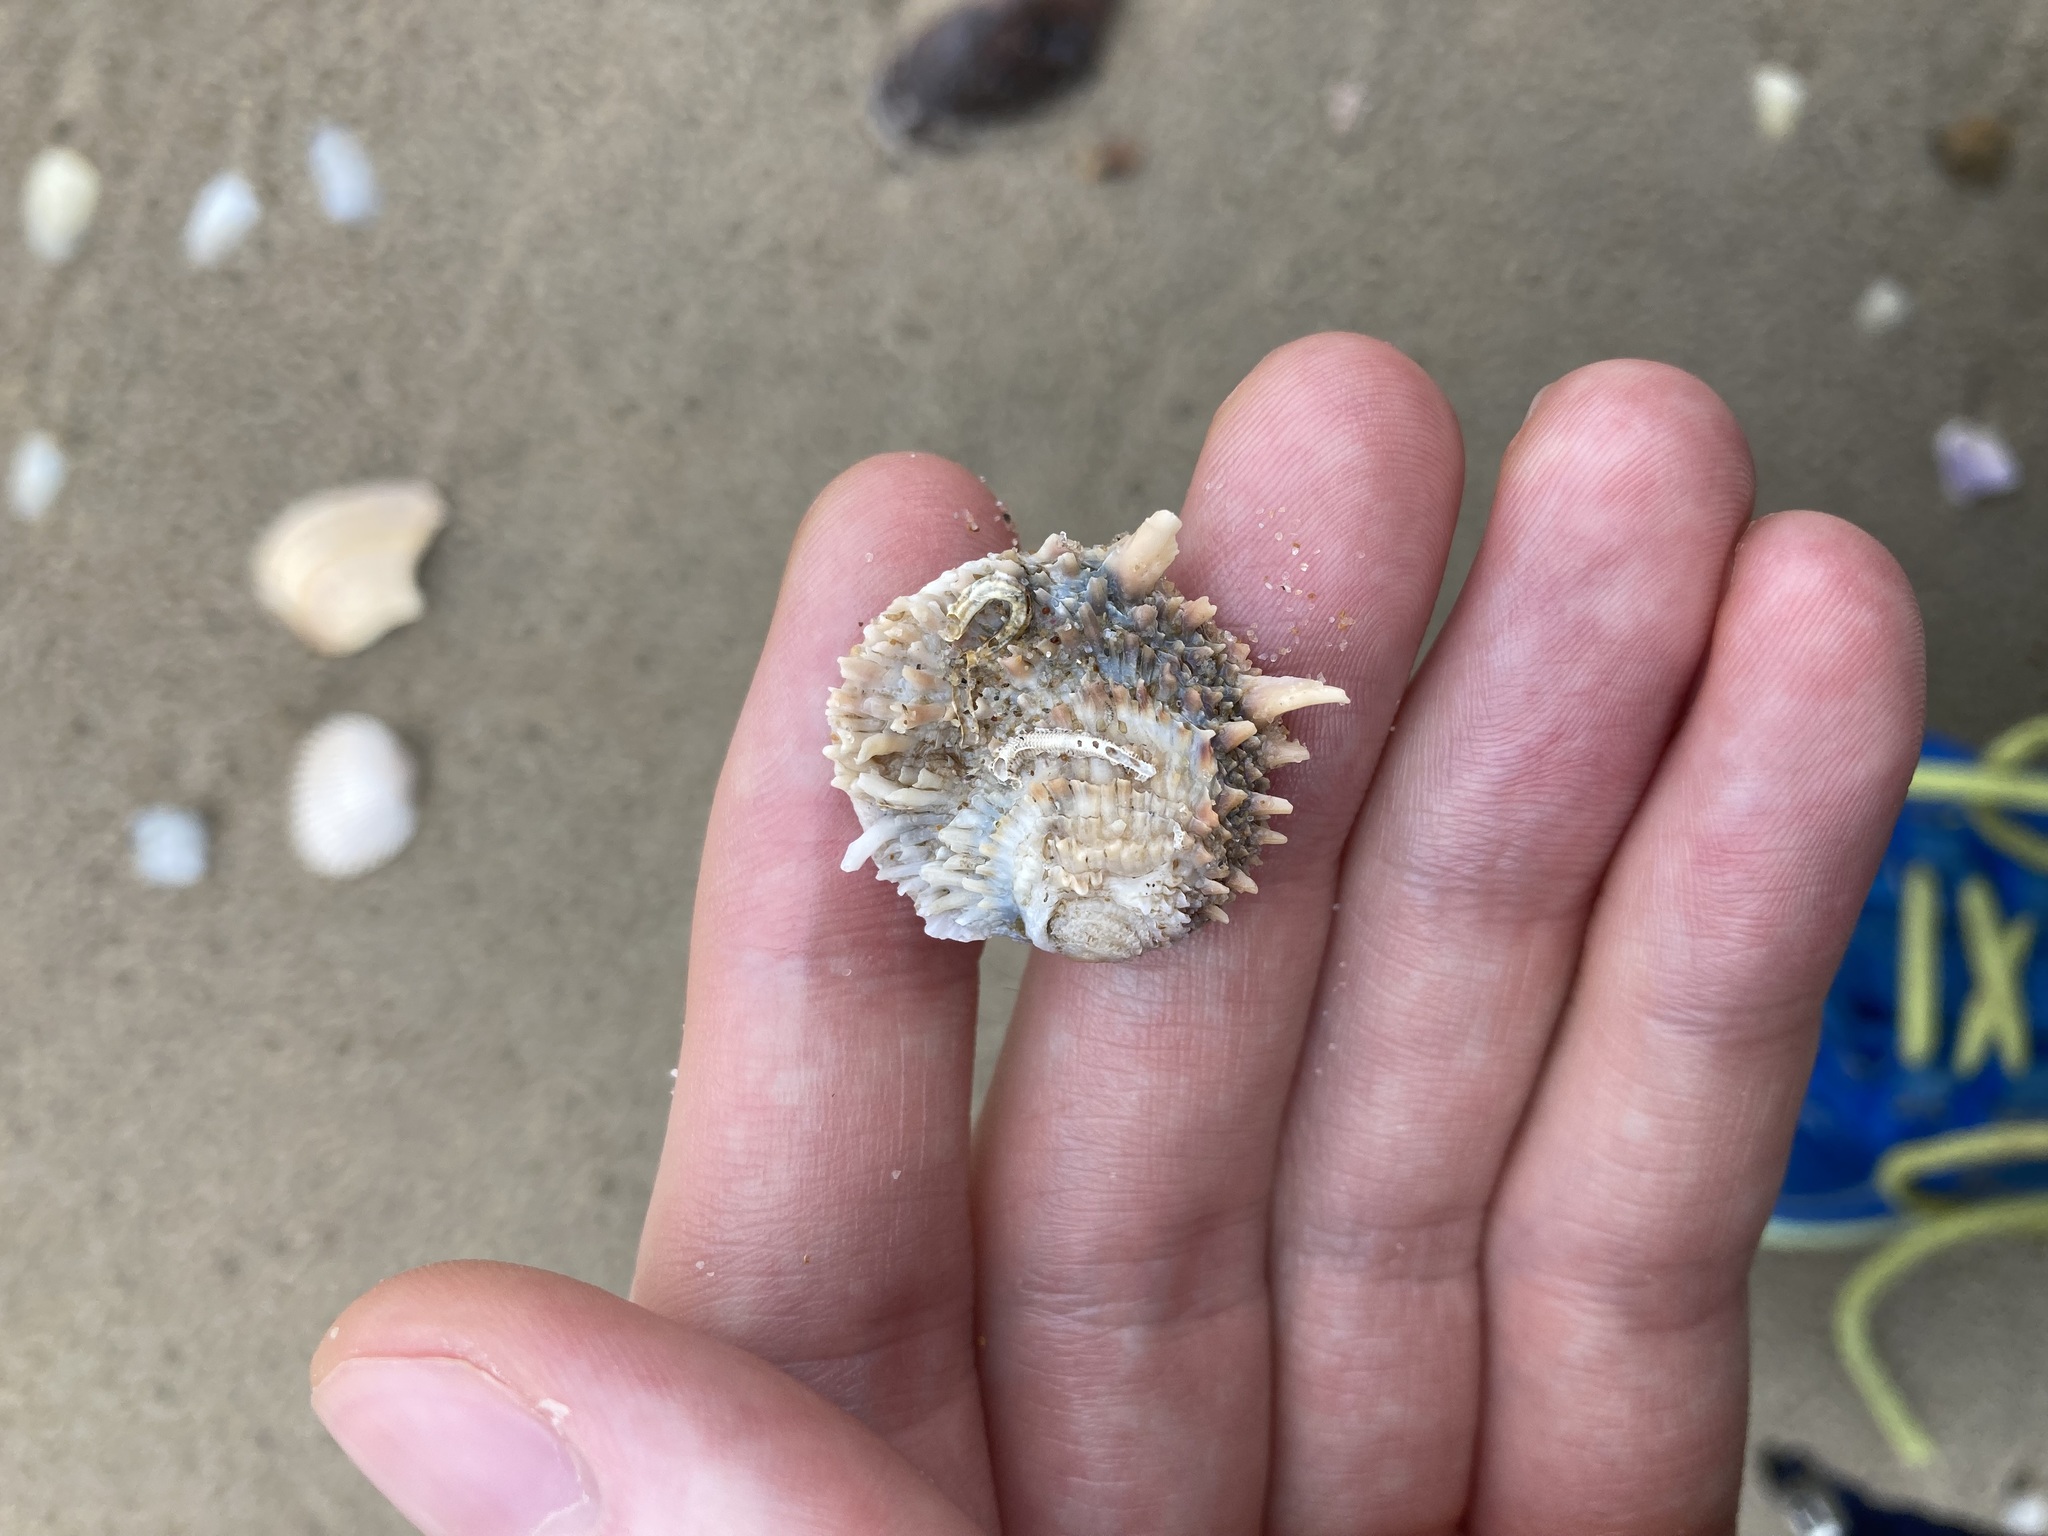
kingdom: Animalia
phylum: Mollusca
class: Bivalvia
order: Venerida
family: Chamidae
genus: Chama
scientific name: Chama asperella
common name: Mollusca
